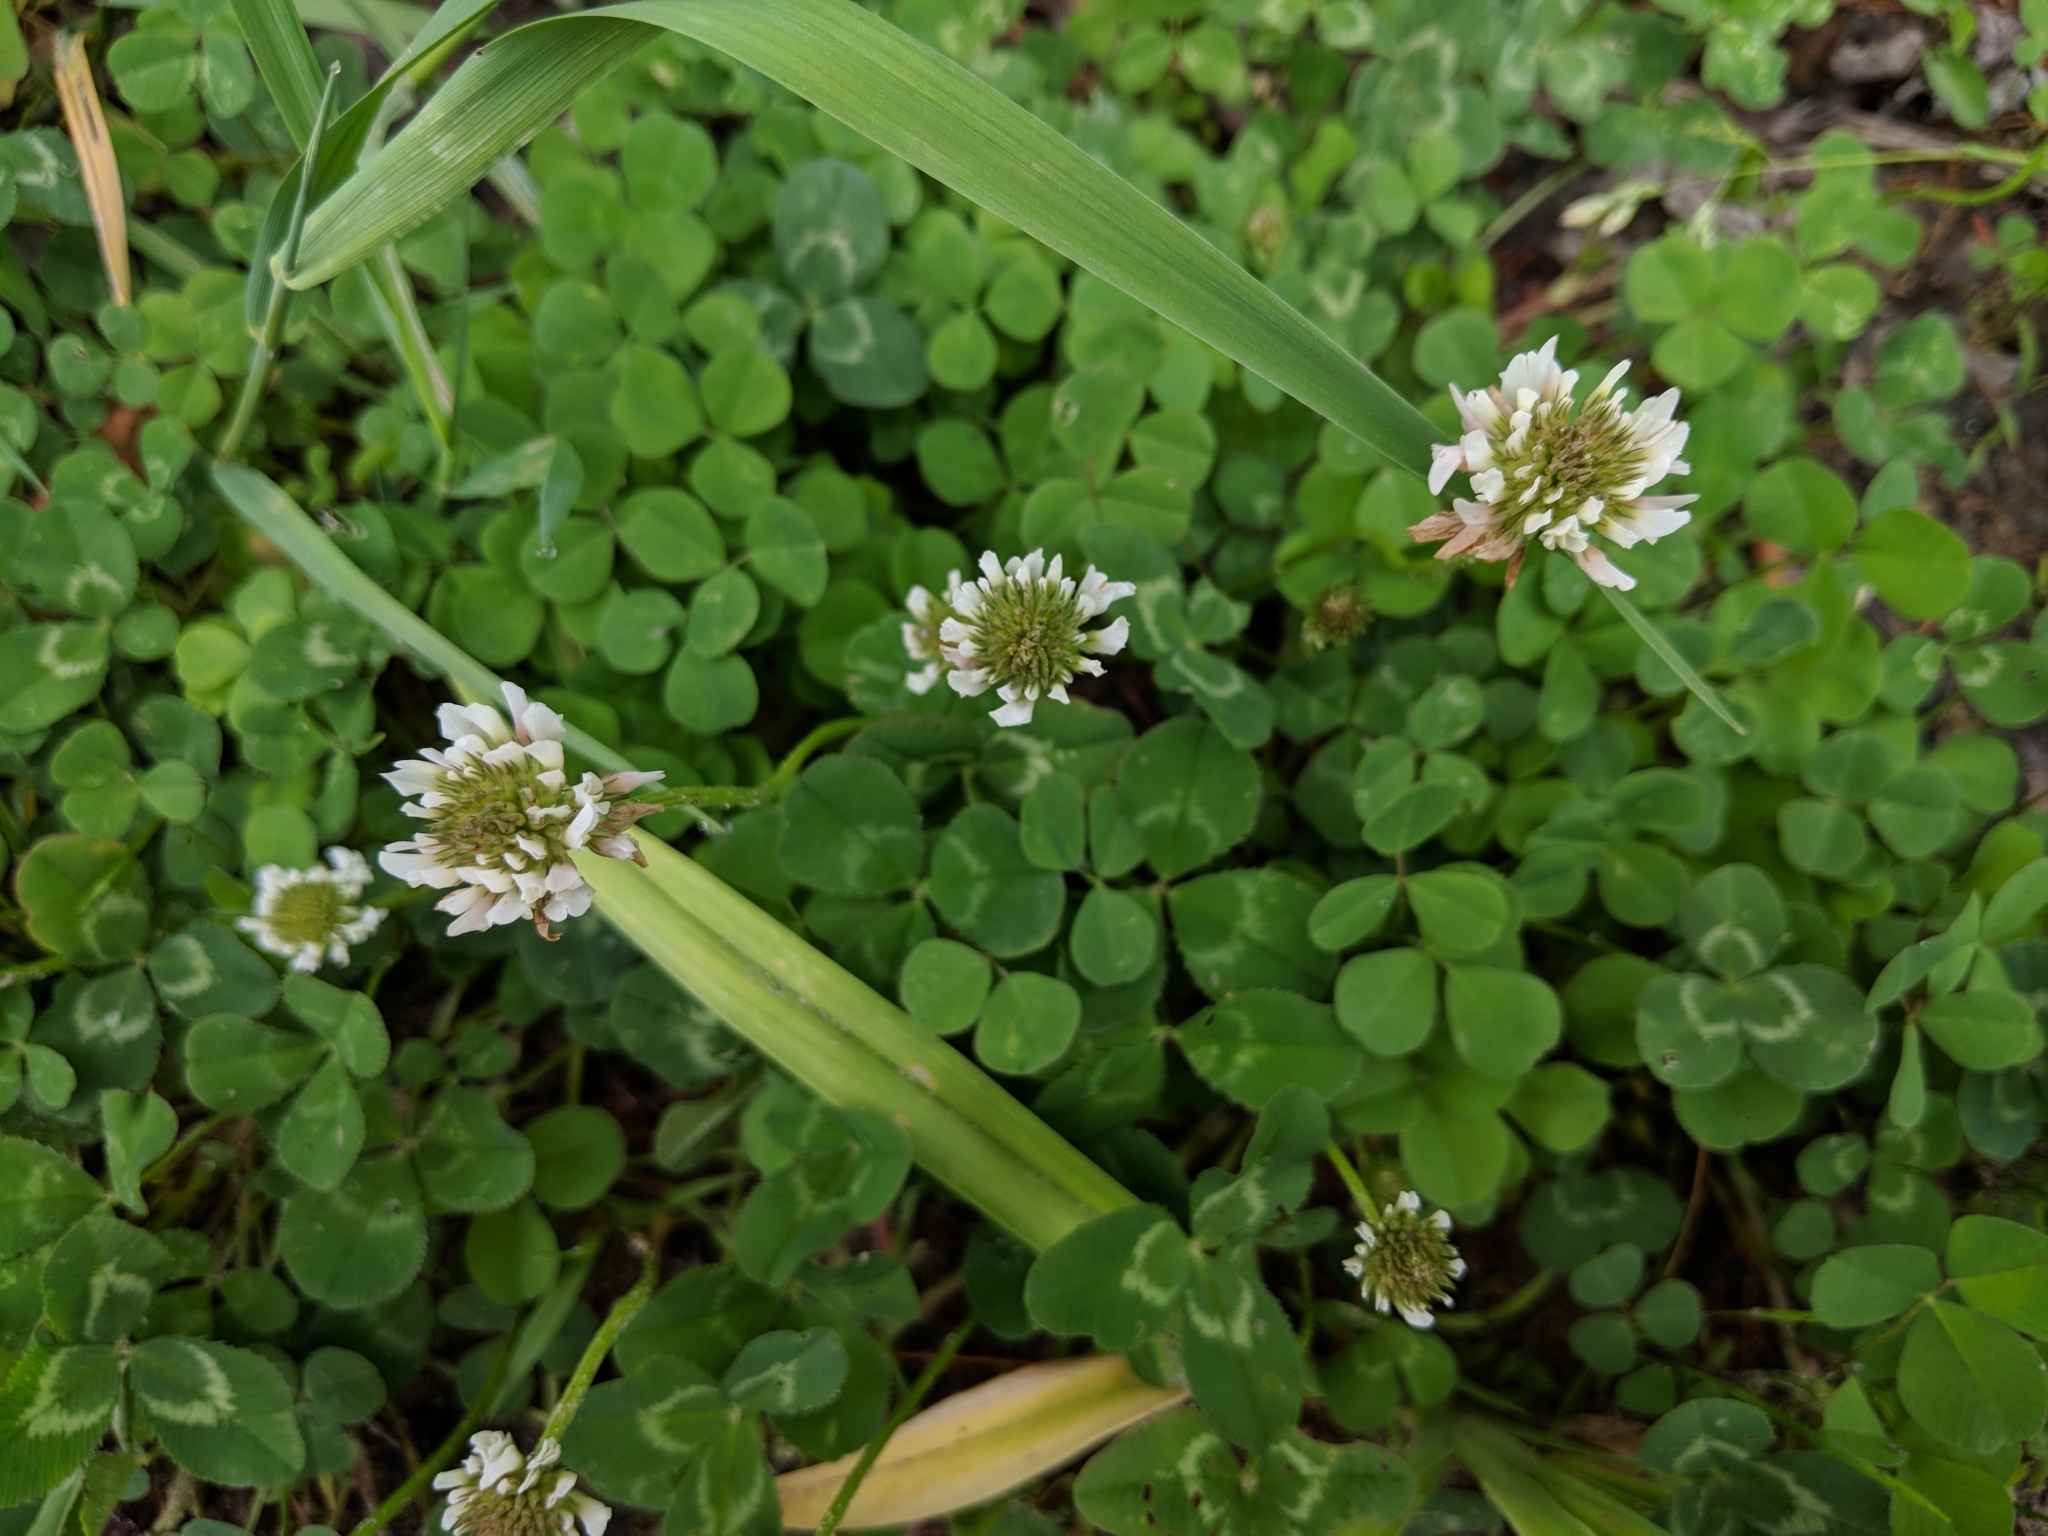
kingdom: Plantae
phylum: Tracheophyta
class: Magnoliopsida
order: Fabales
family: Fabaceae
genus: Trifolium
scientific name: Trifolium repens
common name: White clover
